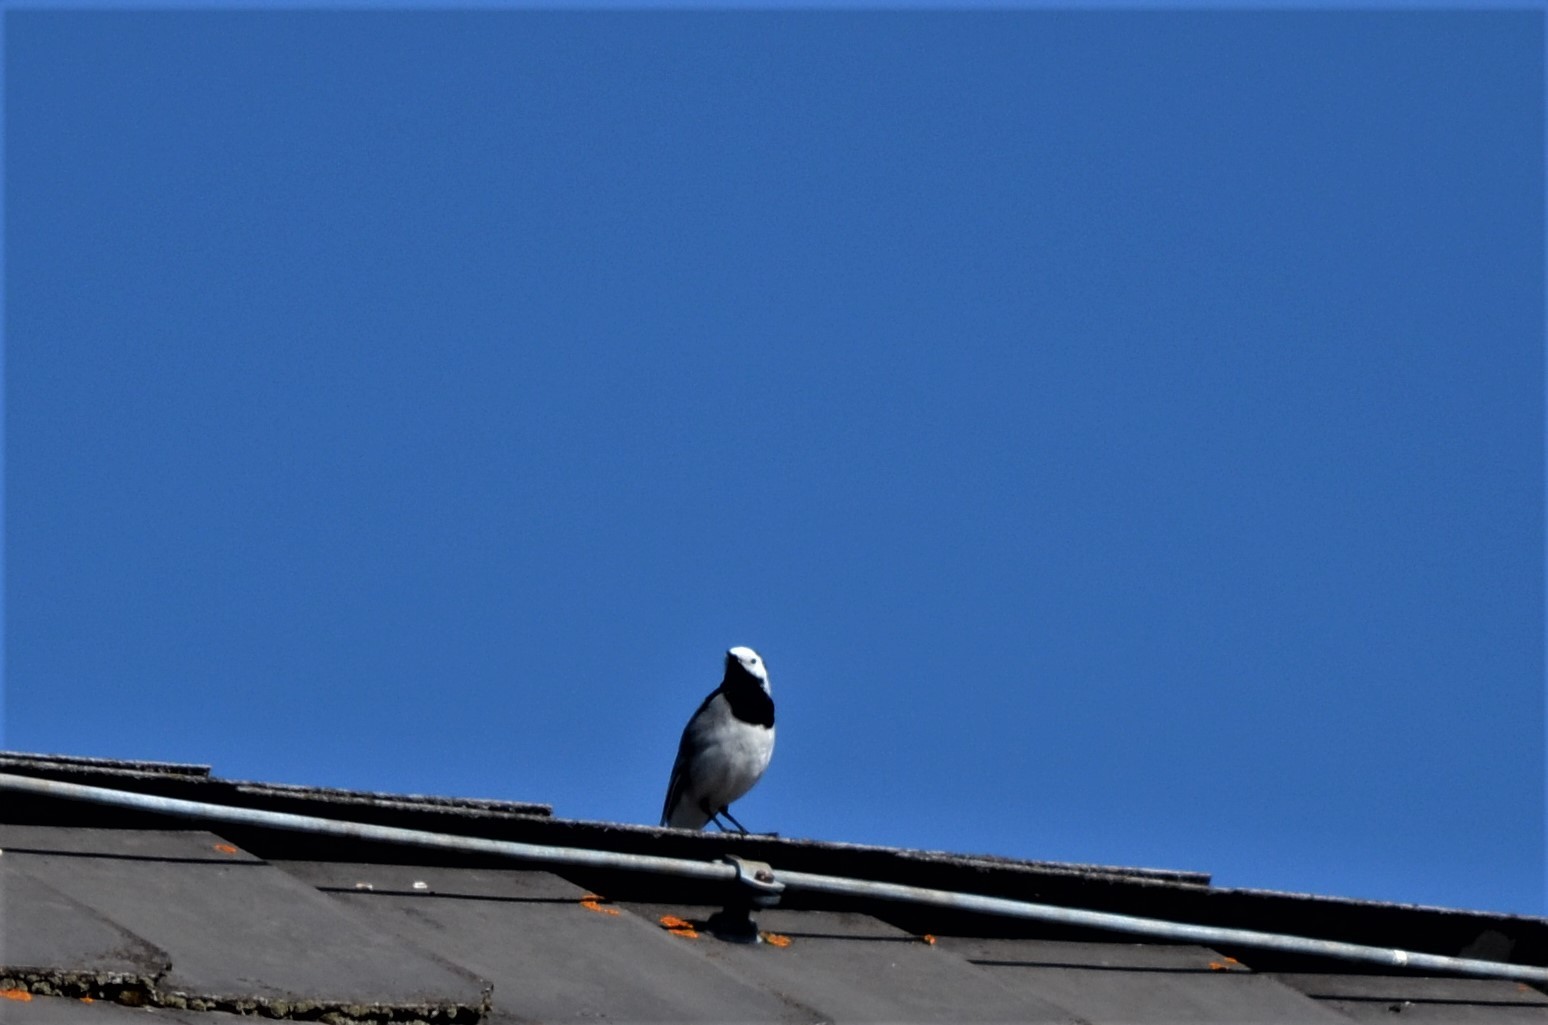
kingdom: Animalia
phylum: Chordata
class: Aves
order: Passeriformes
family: Motacillidae
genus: Motacilla
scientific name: Motacilla alba
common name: White wagtail
